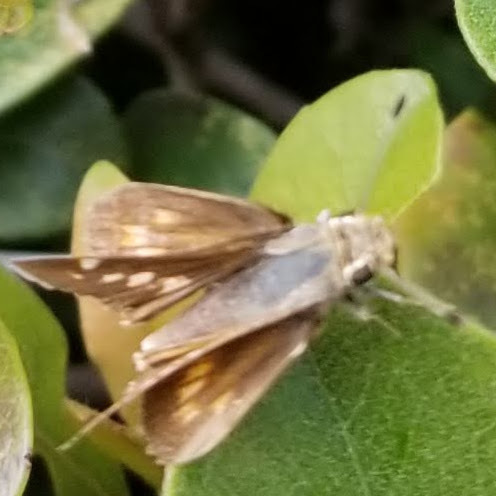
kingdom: Animalia
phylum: Arthropoda
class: Insecta
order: Lepidoptera
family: Hesperiidae
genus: Lon
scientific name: Lon melane
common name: Umber skipper
